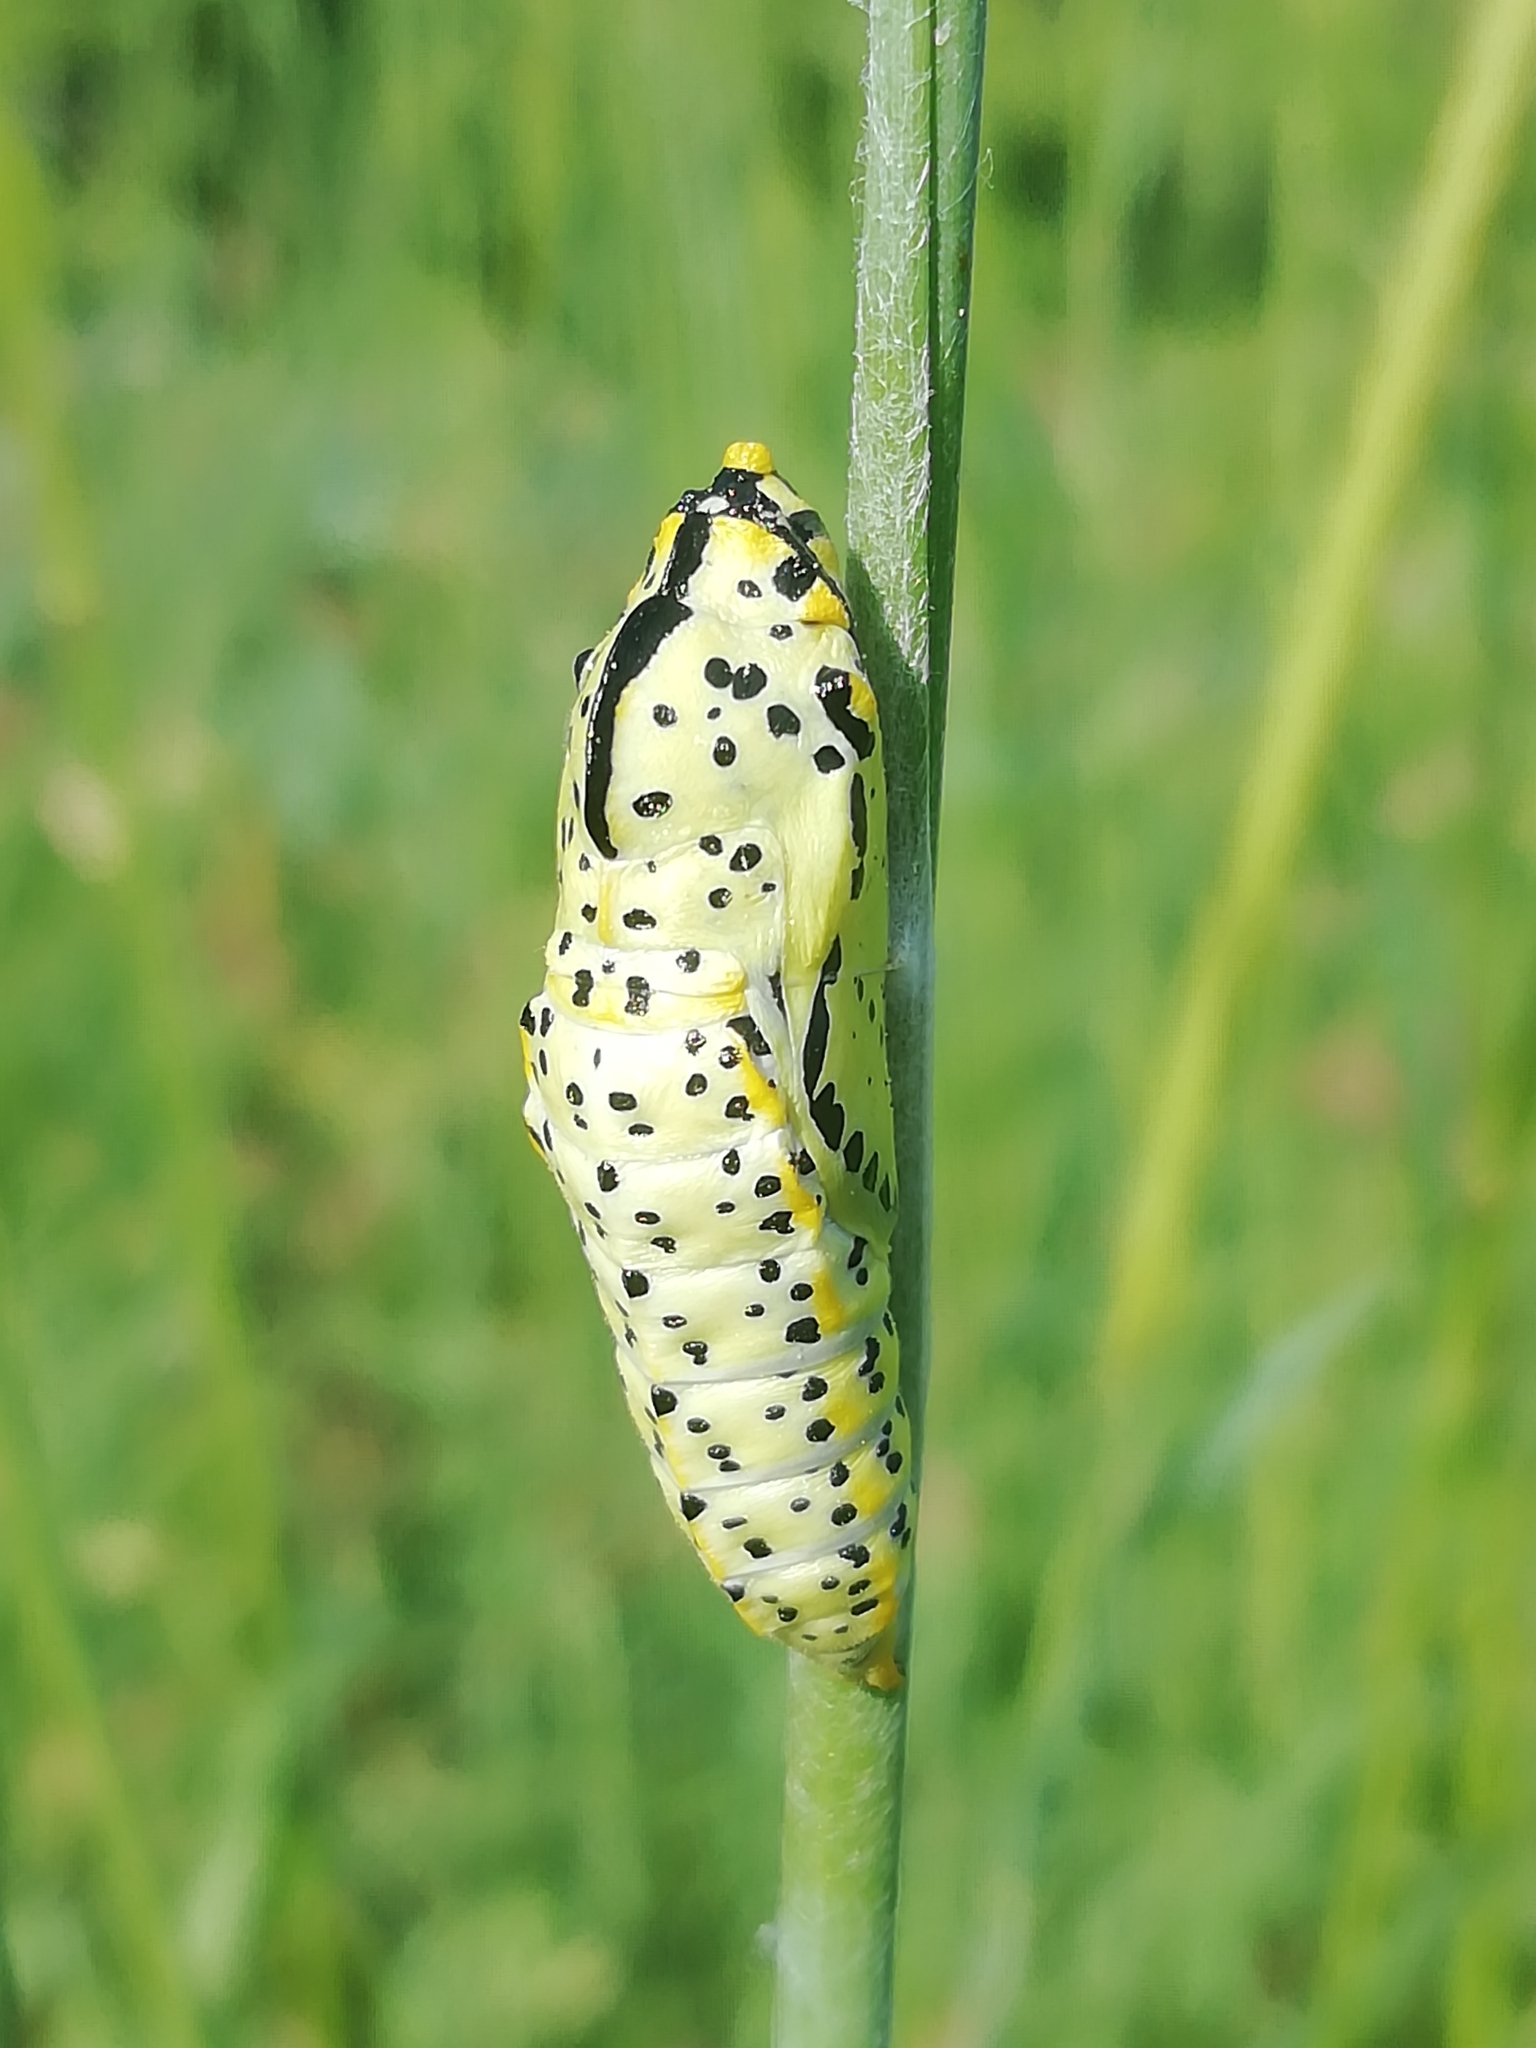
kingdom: Animalia
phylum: Arthropoda
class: Insecta
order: Lepidoptera
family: Pieridae
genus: Aporia
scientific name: Aporia crataegi
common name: Black-veined white
